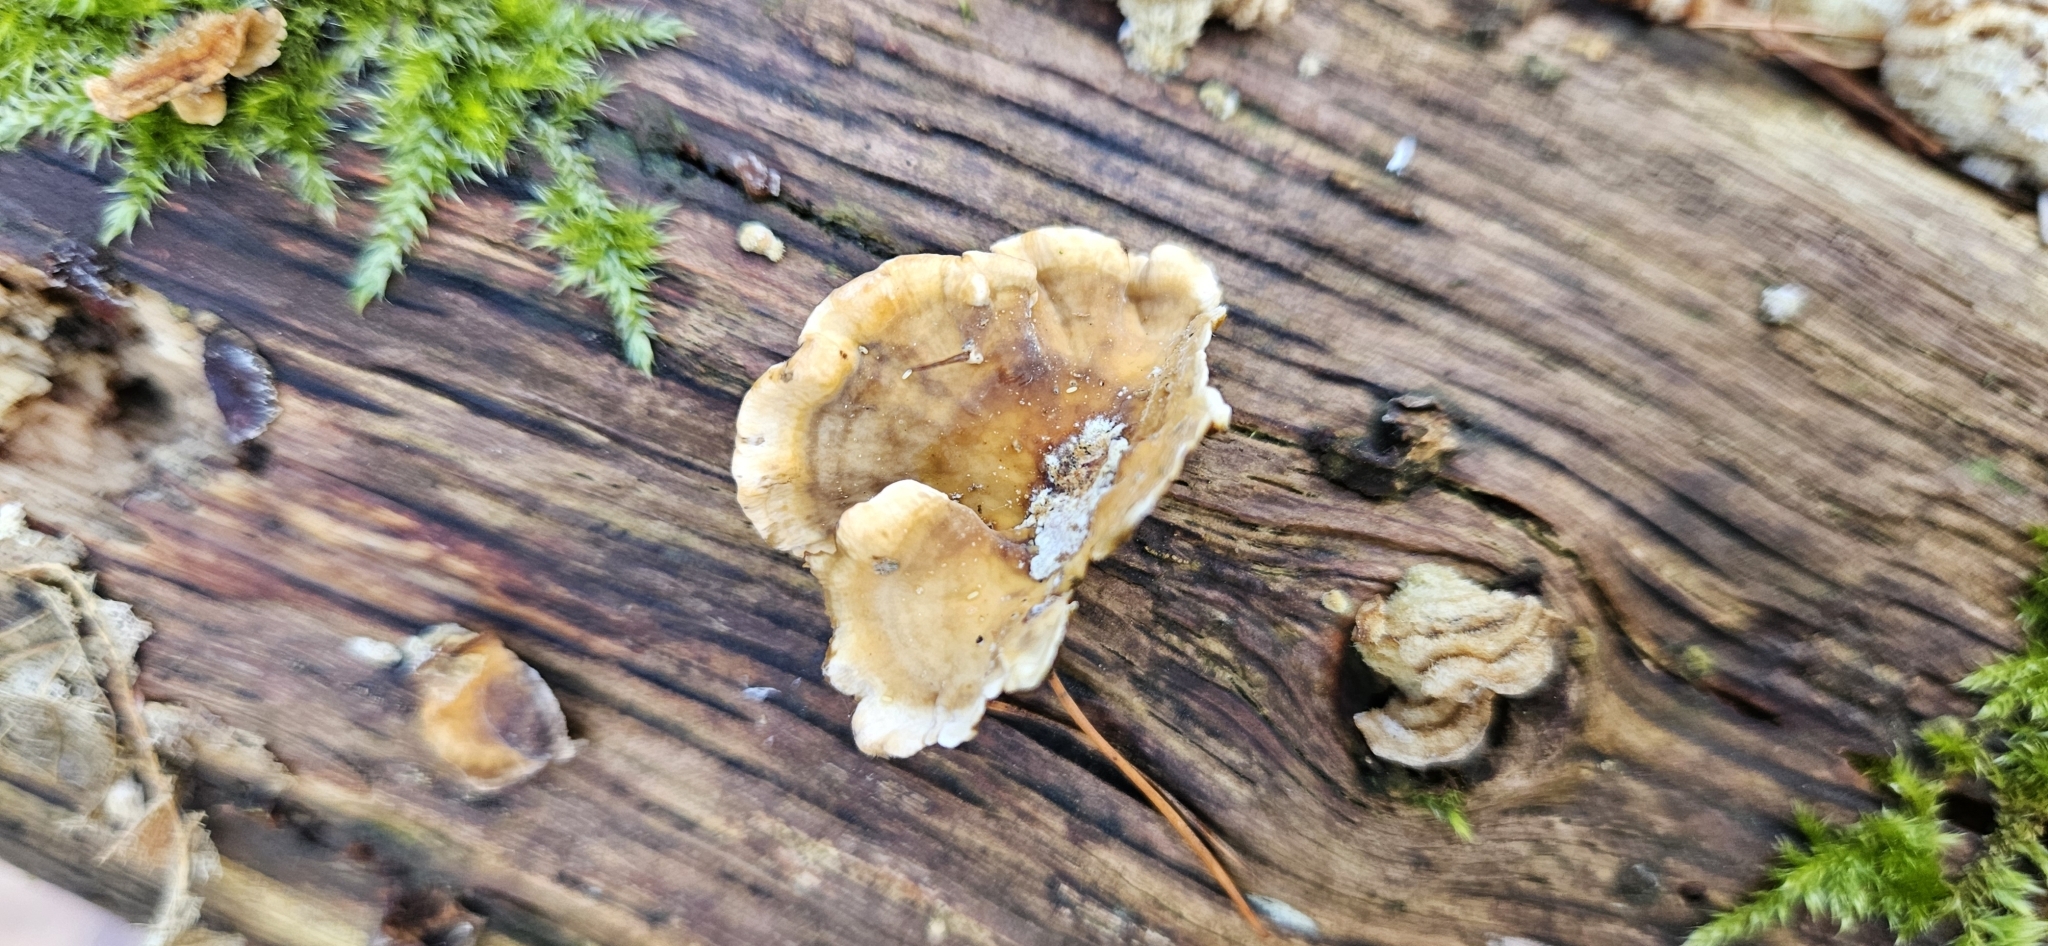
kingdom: Fungi
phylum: Basidiomycota
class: Agaricomycetes
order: Russulales
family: Stereaceae
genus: Stereum
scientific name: Stereum hirsutum
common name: Hairy curtain crust
